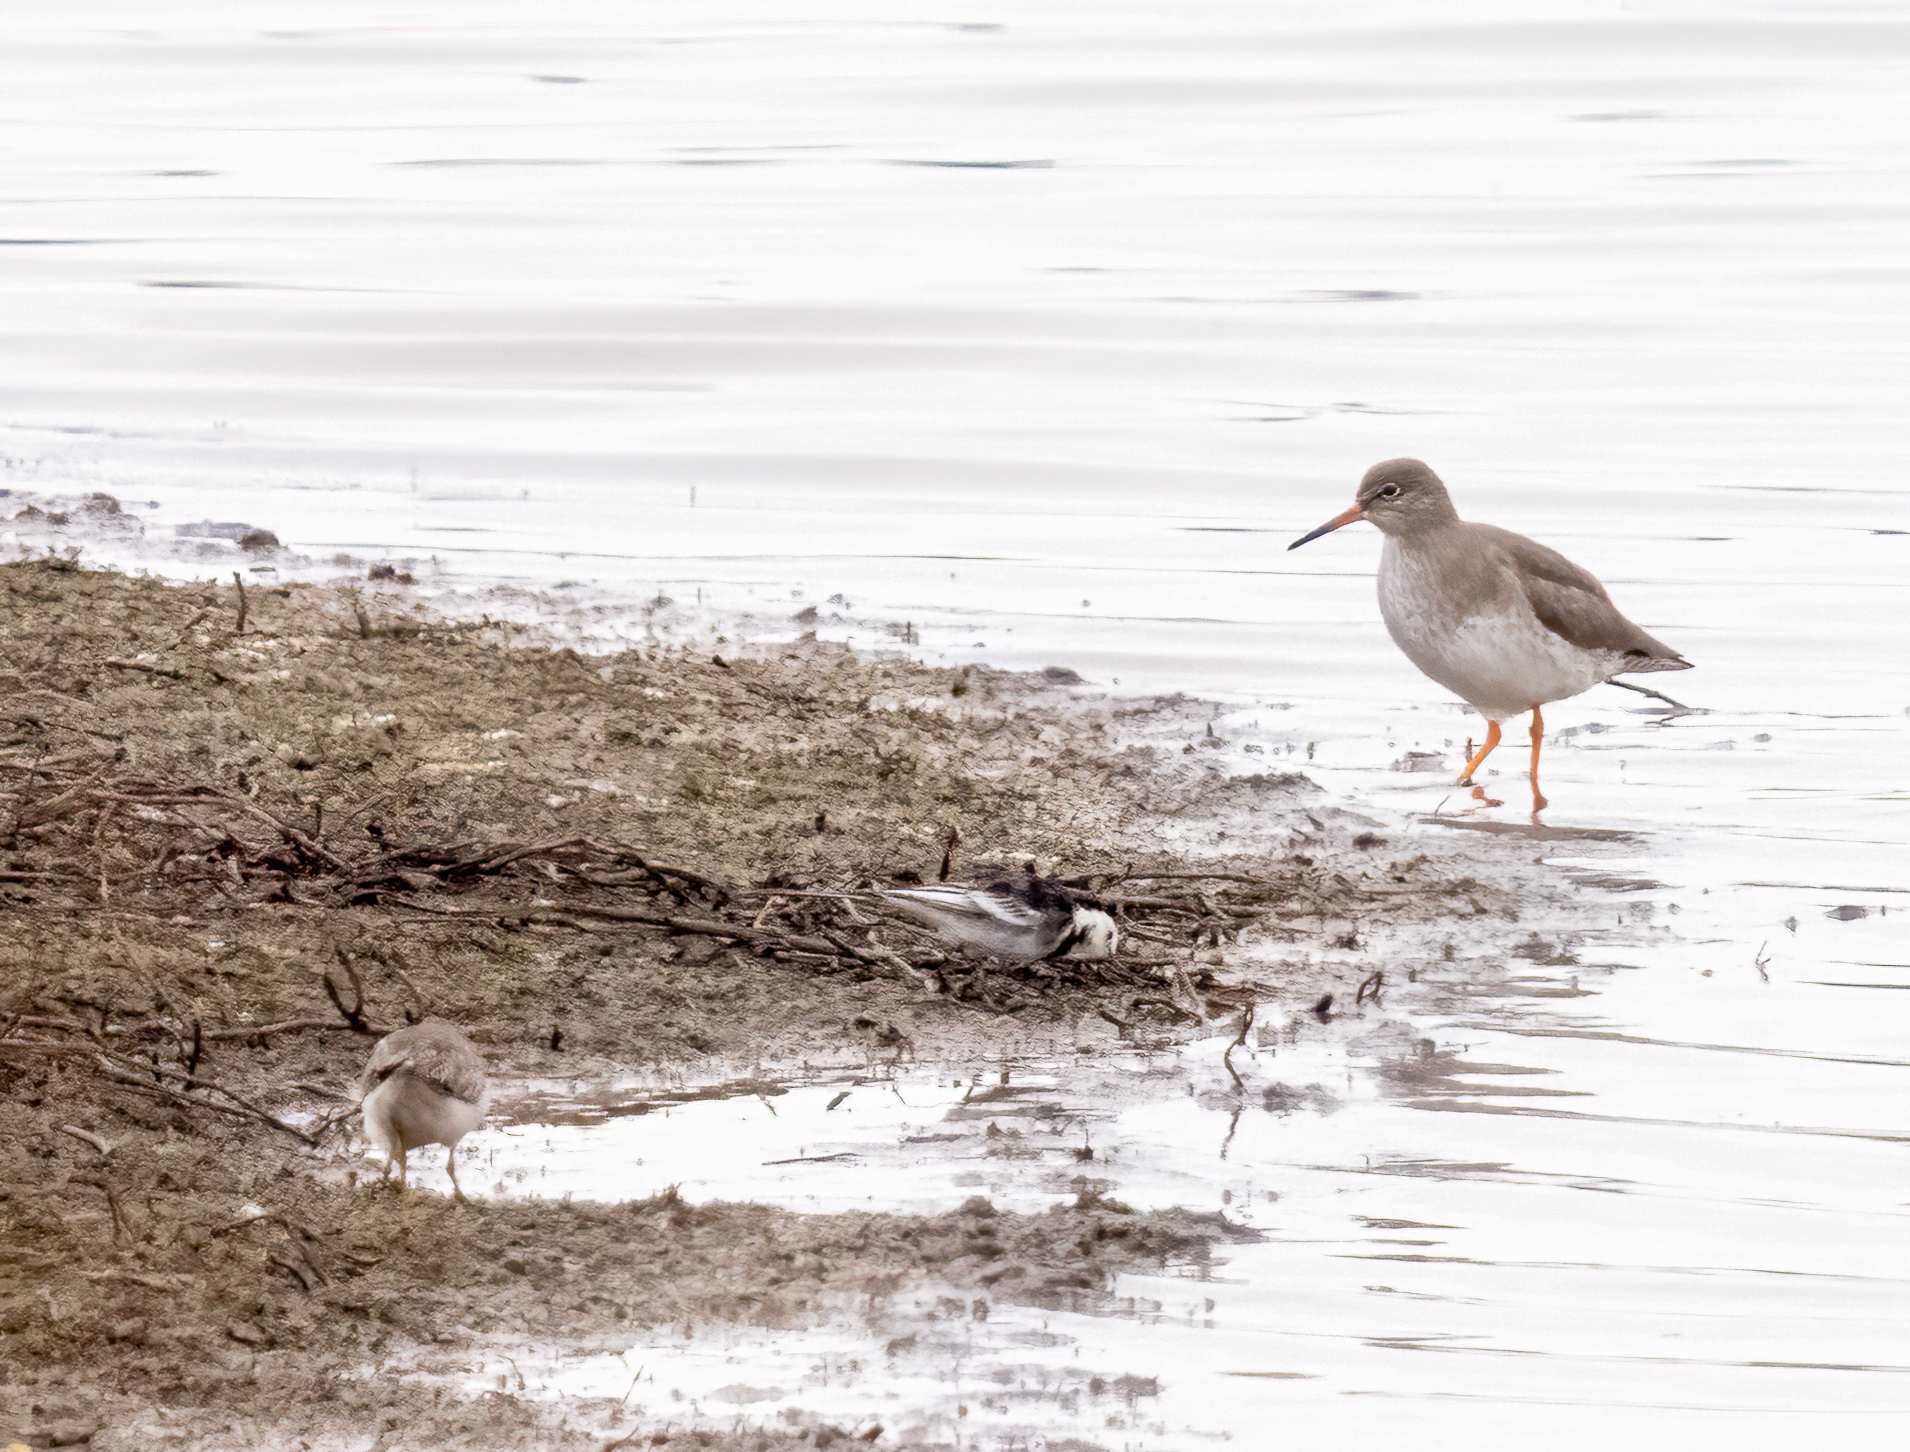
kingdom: Animalia
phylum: Chordata
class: Aves
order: Charadriiformes
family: Scolopacidae
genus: Tringa
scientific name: Tringa totanus
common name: Common redshank
